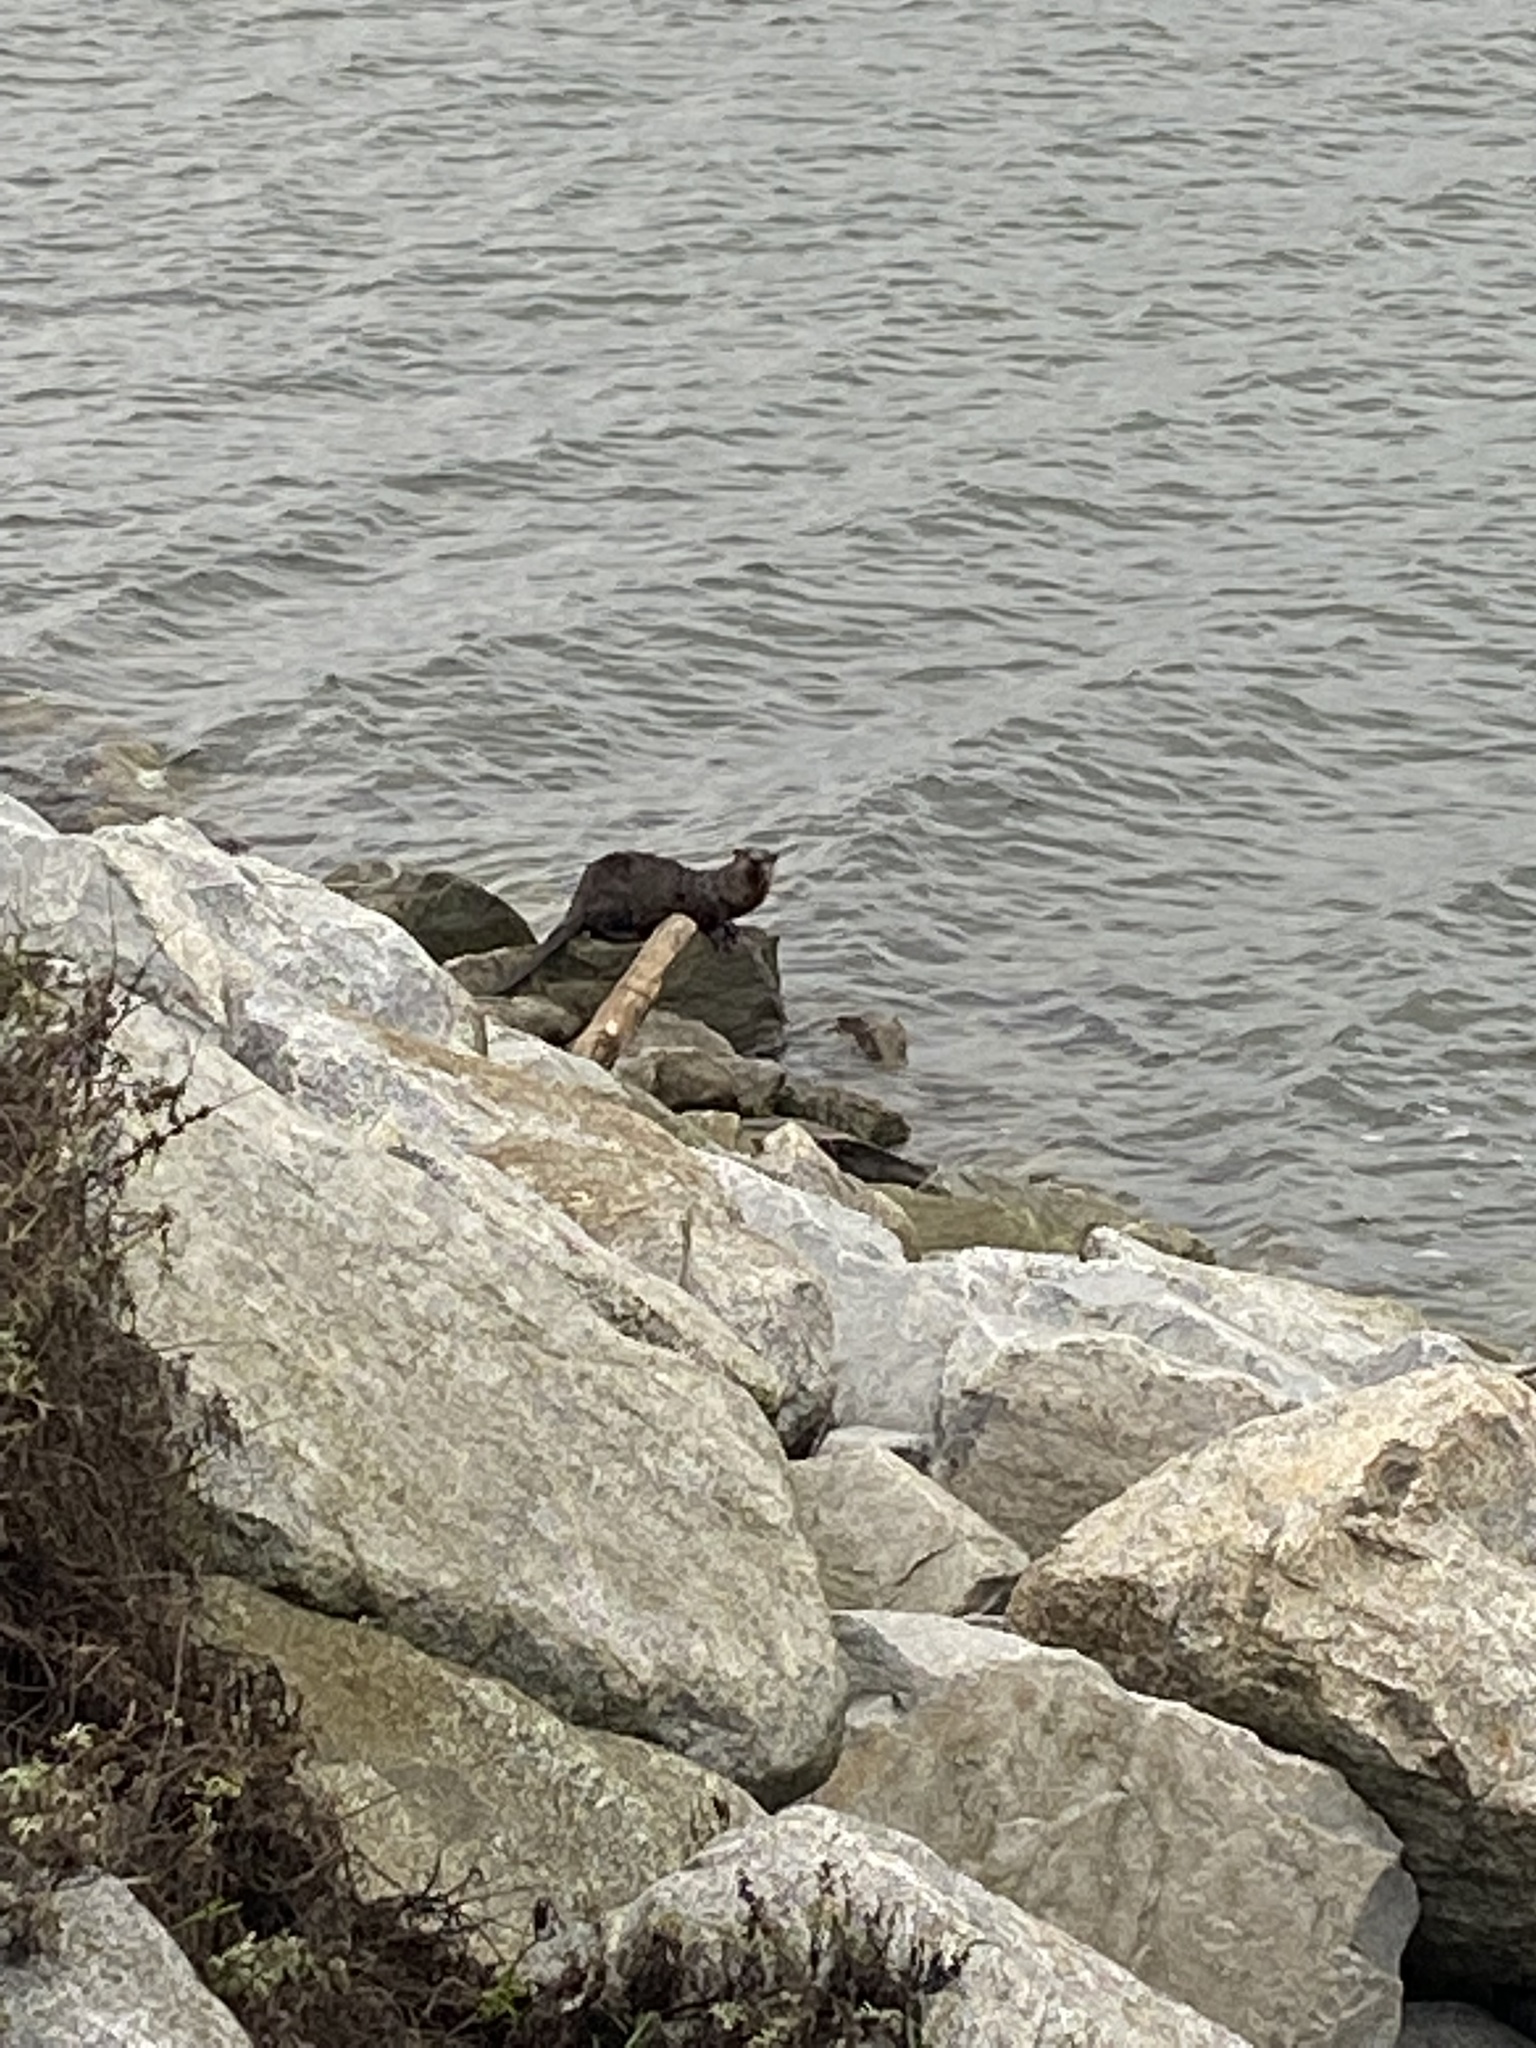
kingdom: Animalia
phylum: Chordata
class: Mammalia
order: Carnivora
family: Mustelidae
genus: Lontra
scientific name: Lontra canadensis
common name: North american river otter
